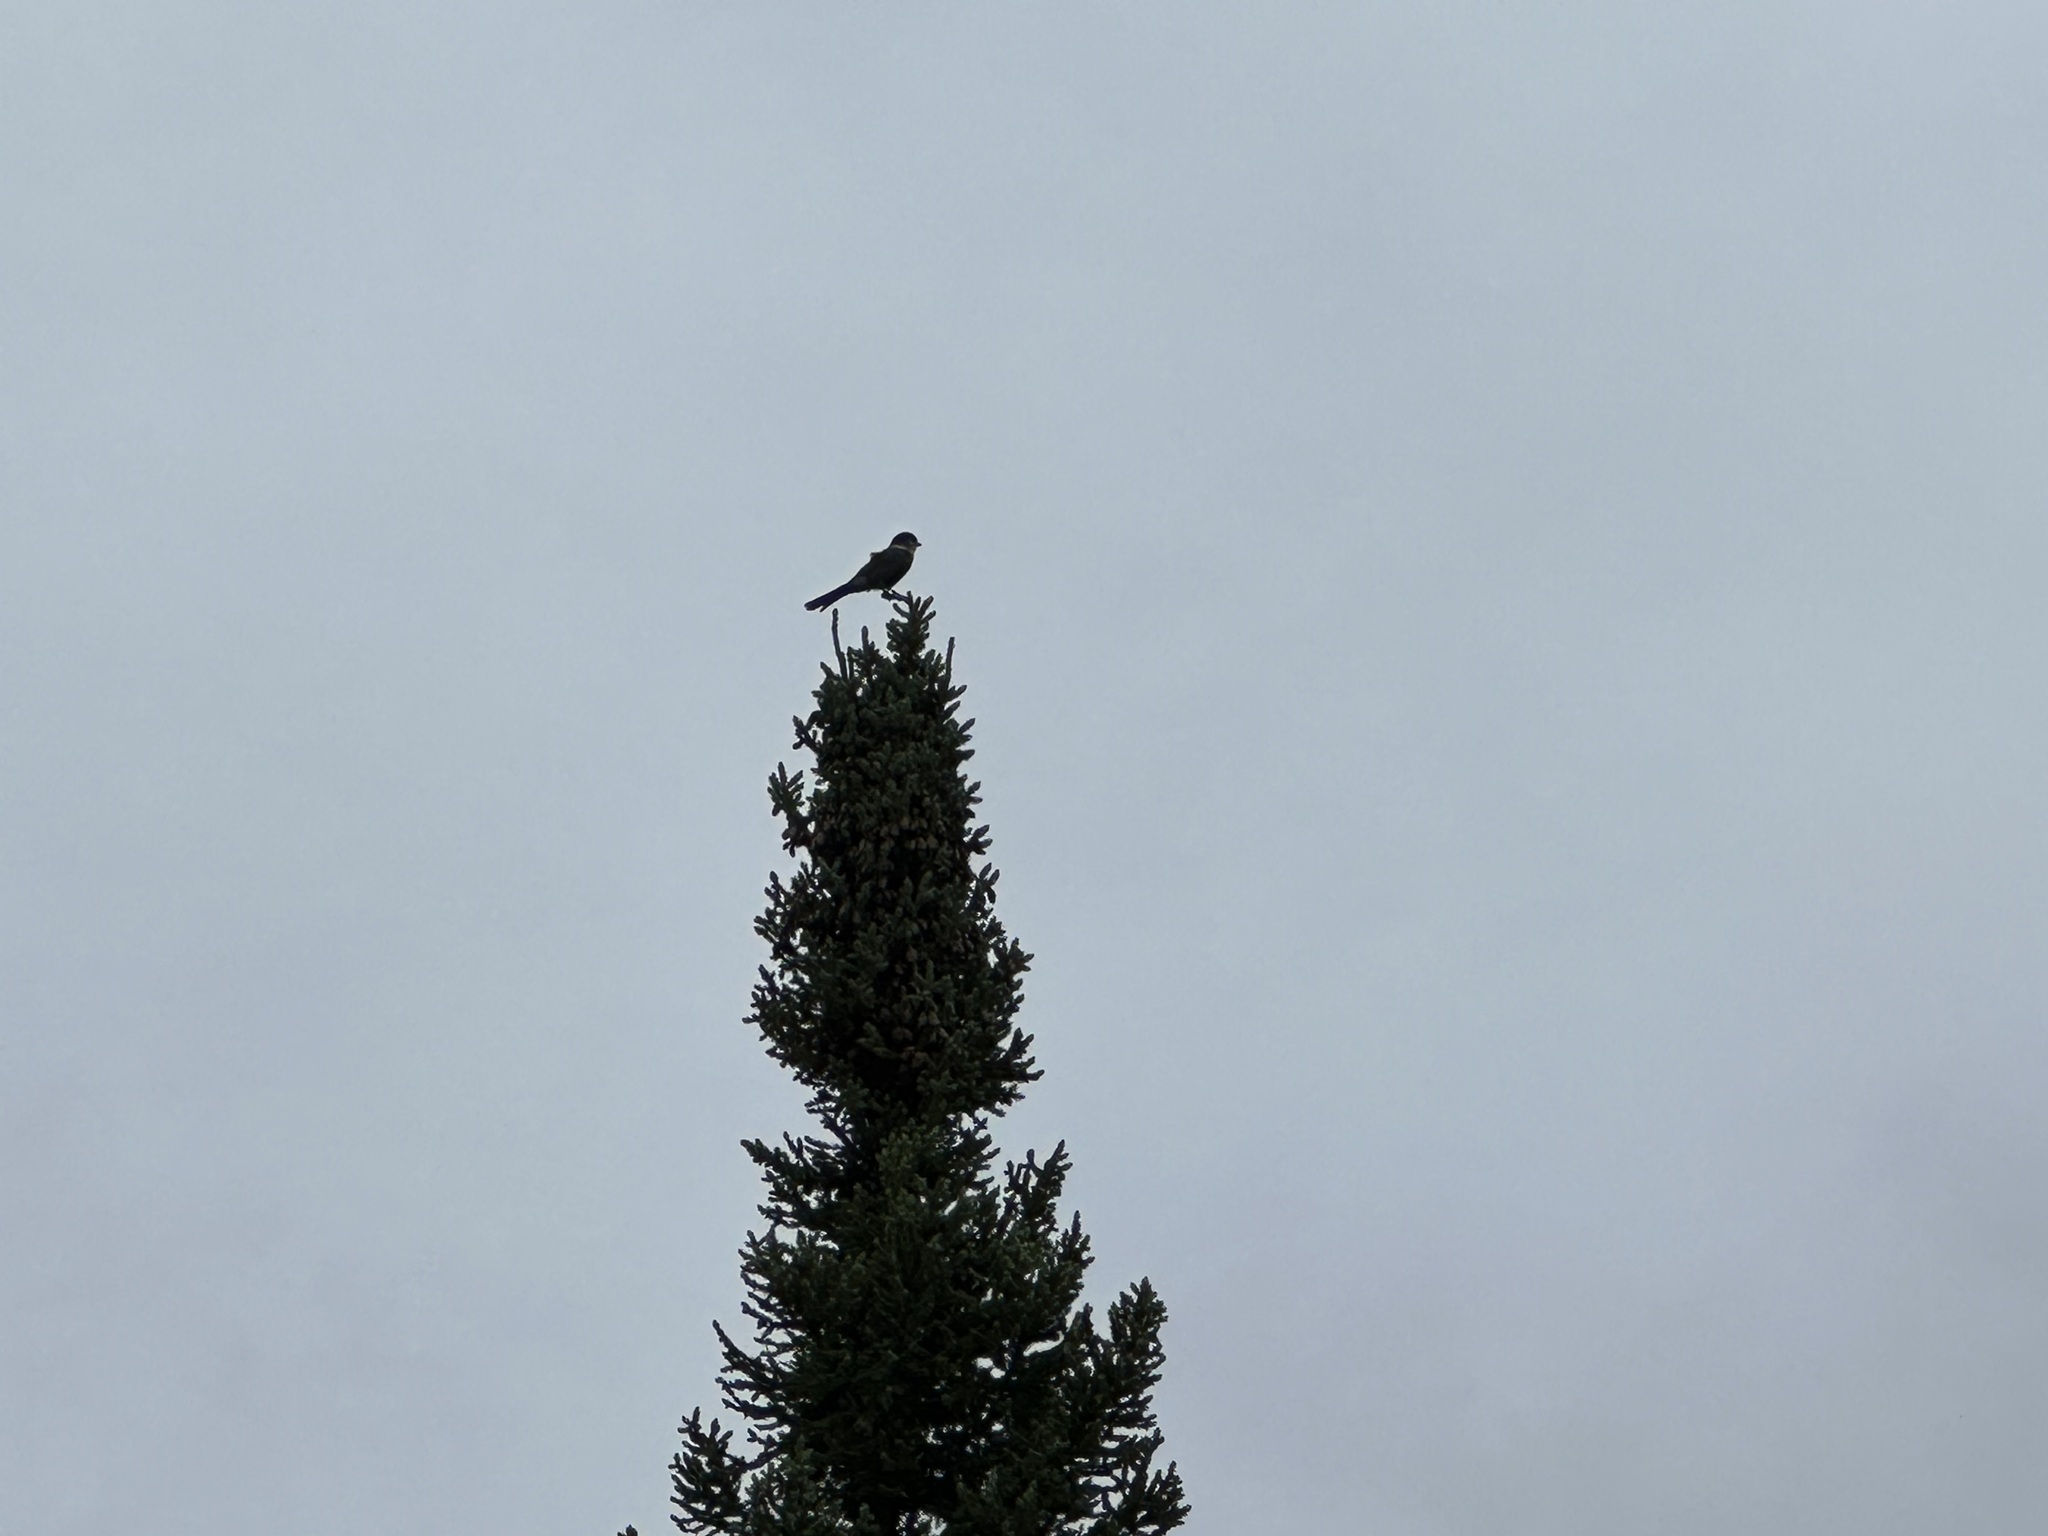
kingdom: Animalia
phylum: Chordata
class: Aves
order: Passeriformes
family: Corvidae
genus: Perisoreus
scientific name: Perisoreus canadensis
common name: Gray jay
